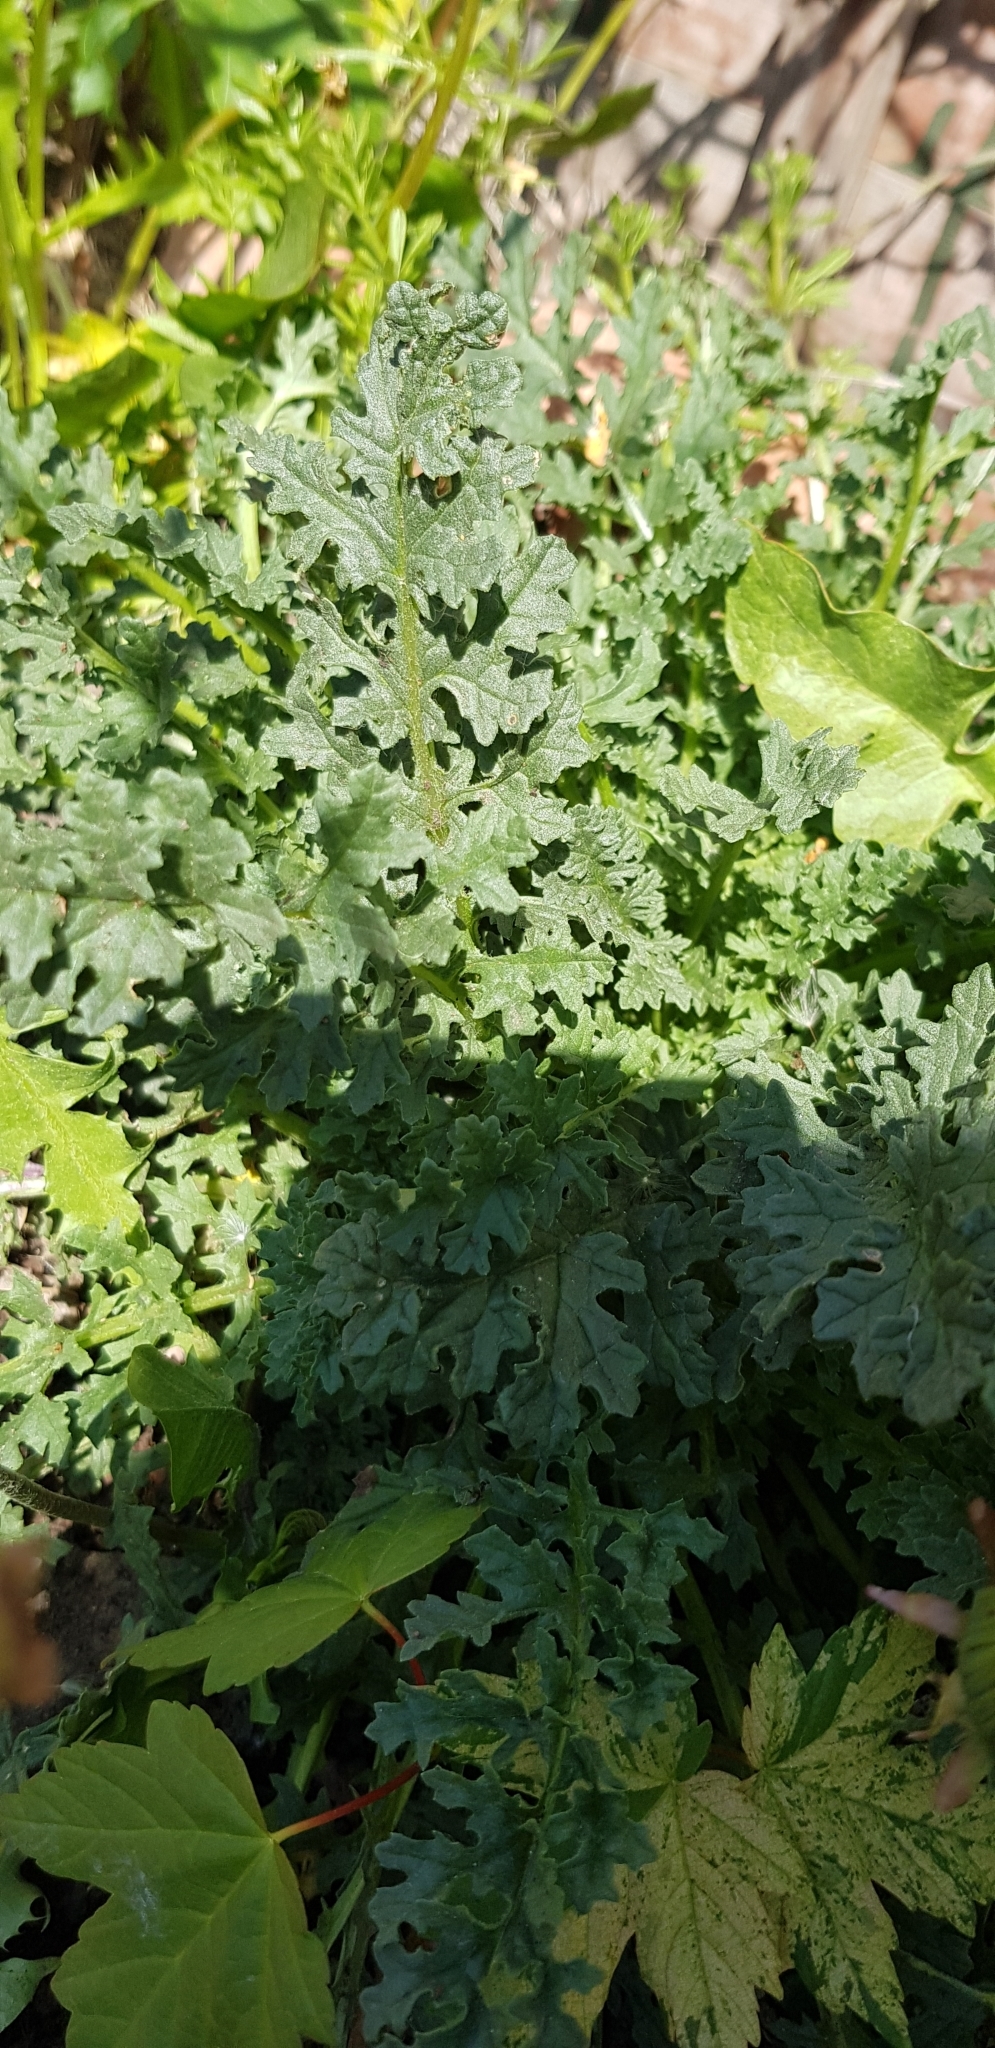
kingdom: Plantae
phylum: Tracheophyta
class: Magnoliopsida
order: Asterales
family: Asteraceae
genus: Jacobaea
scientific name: Jacobaea vulgaris
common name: Stinking willie
